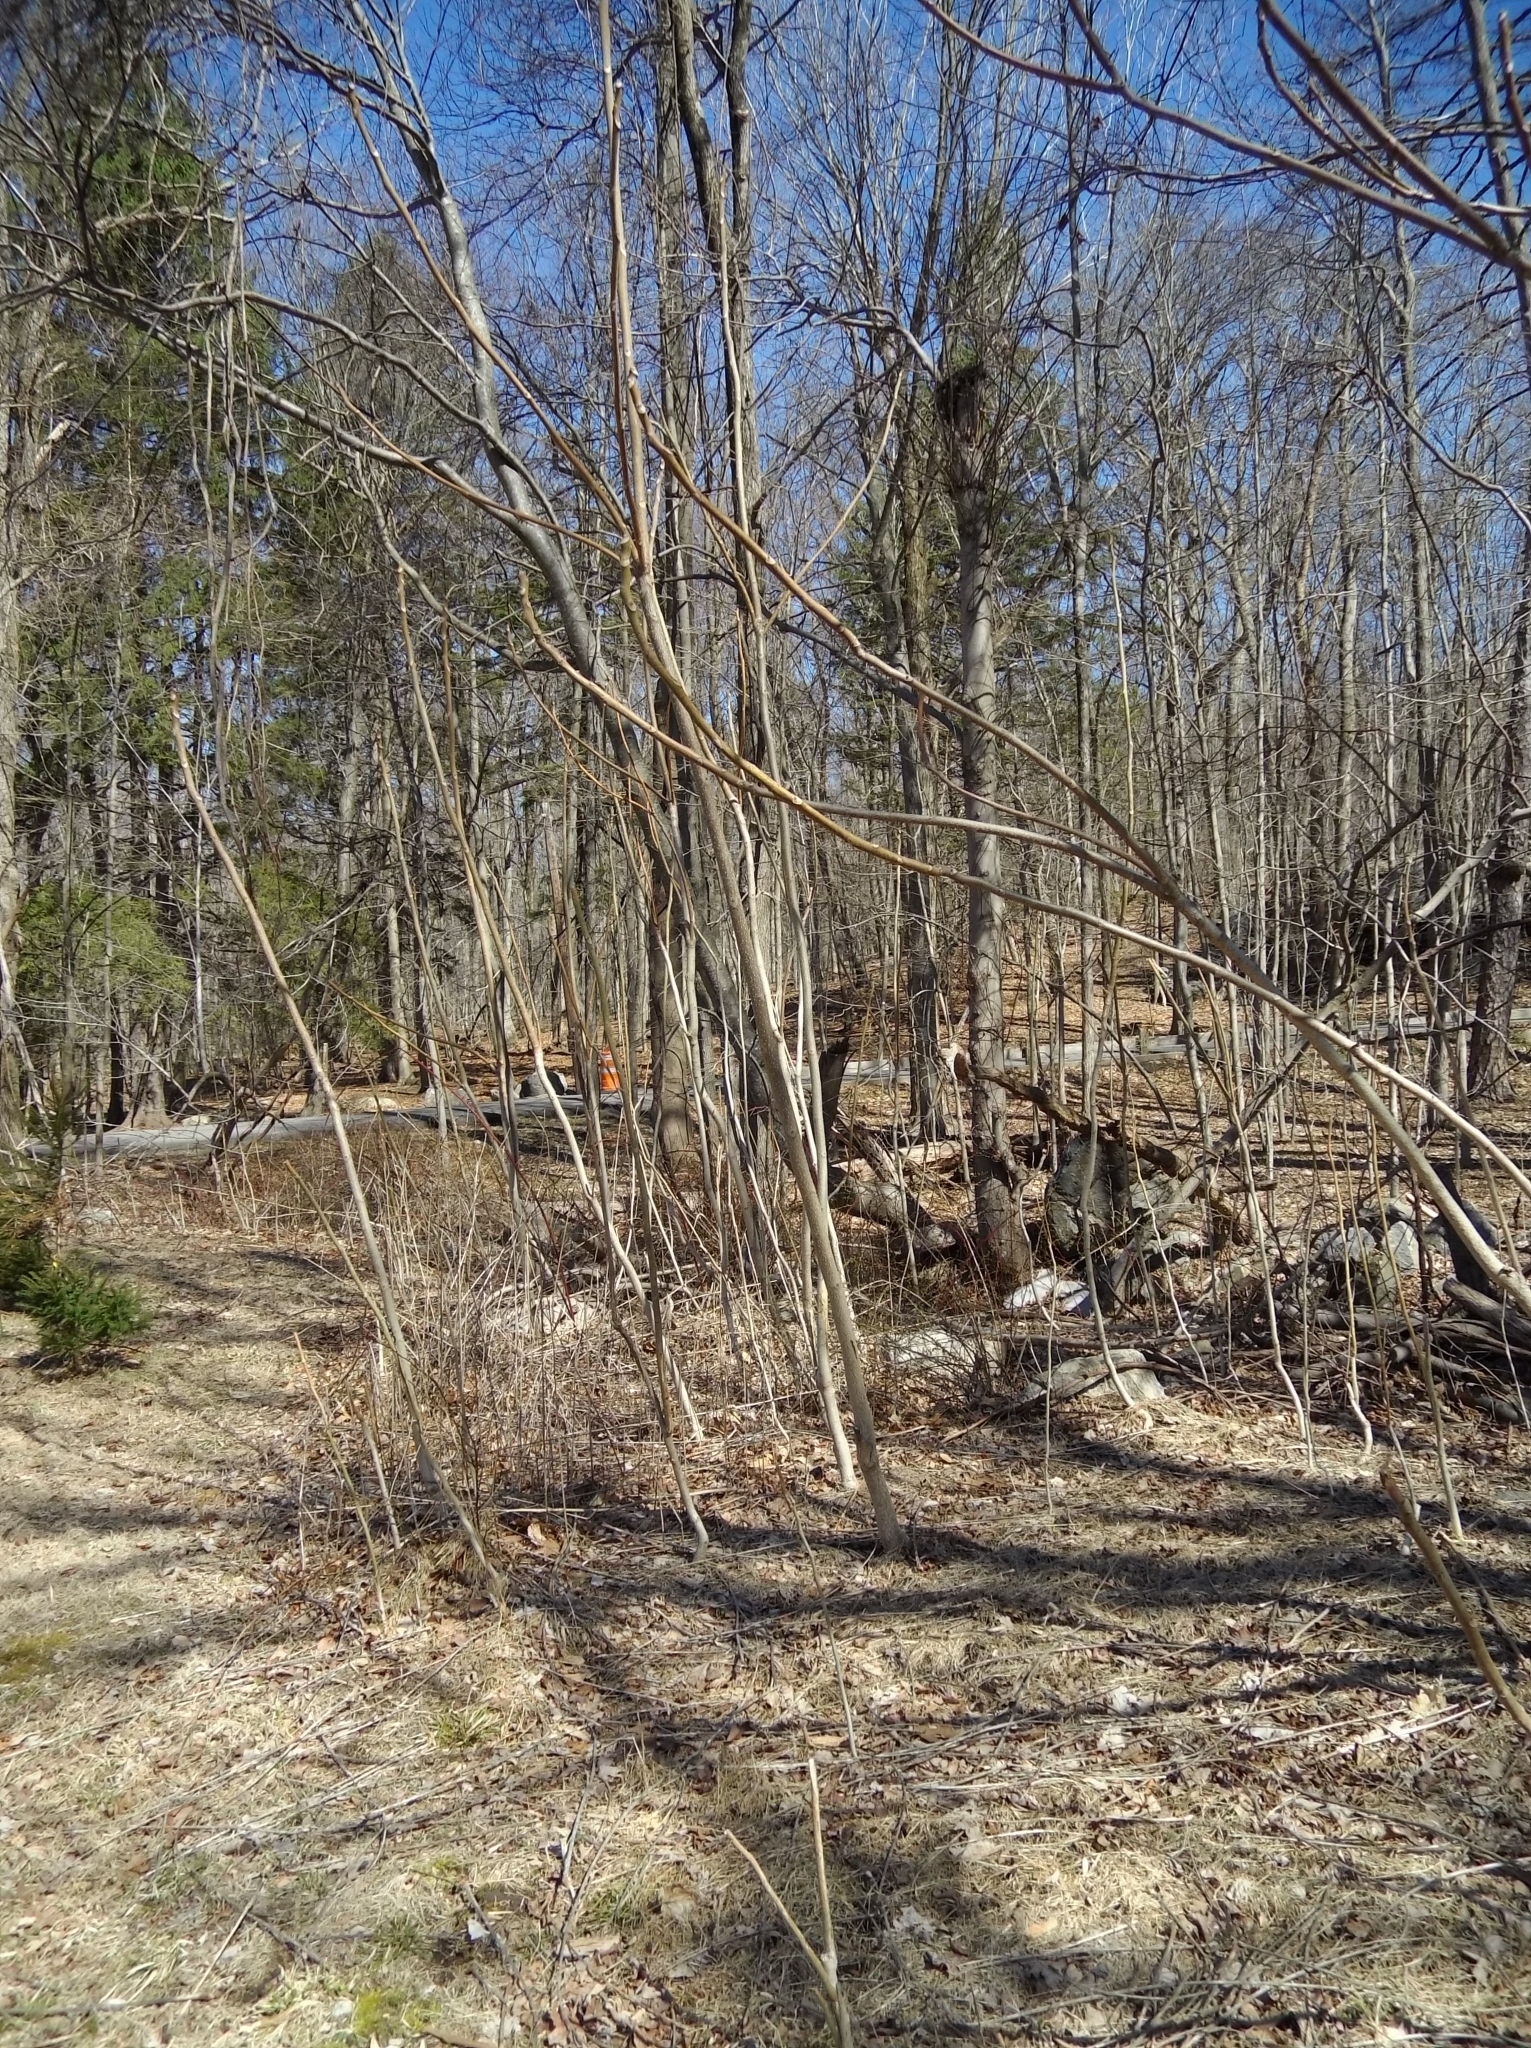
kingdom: Plantae
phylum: Tracheophyta
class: Magnoliopsida
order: Sapindales
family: Simaroubaceae
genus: Ailanthus
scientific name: Ailanthus altissima
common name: Tree-of-heaven
